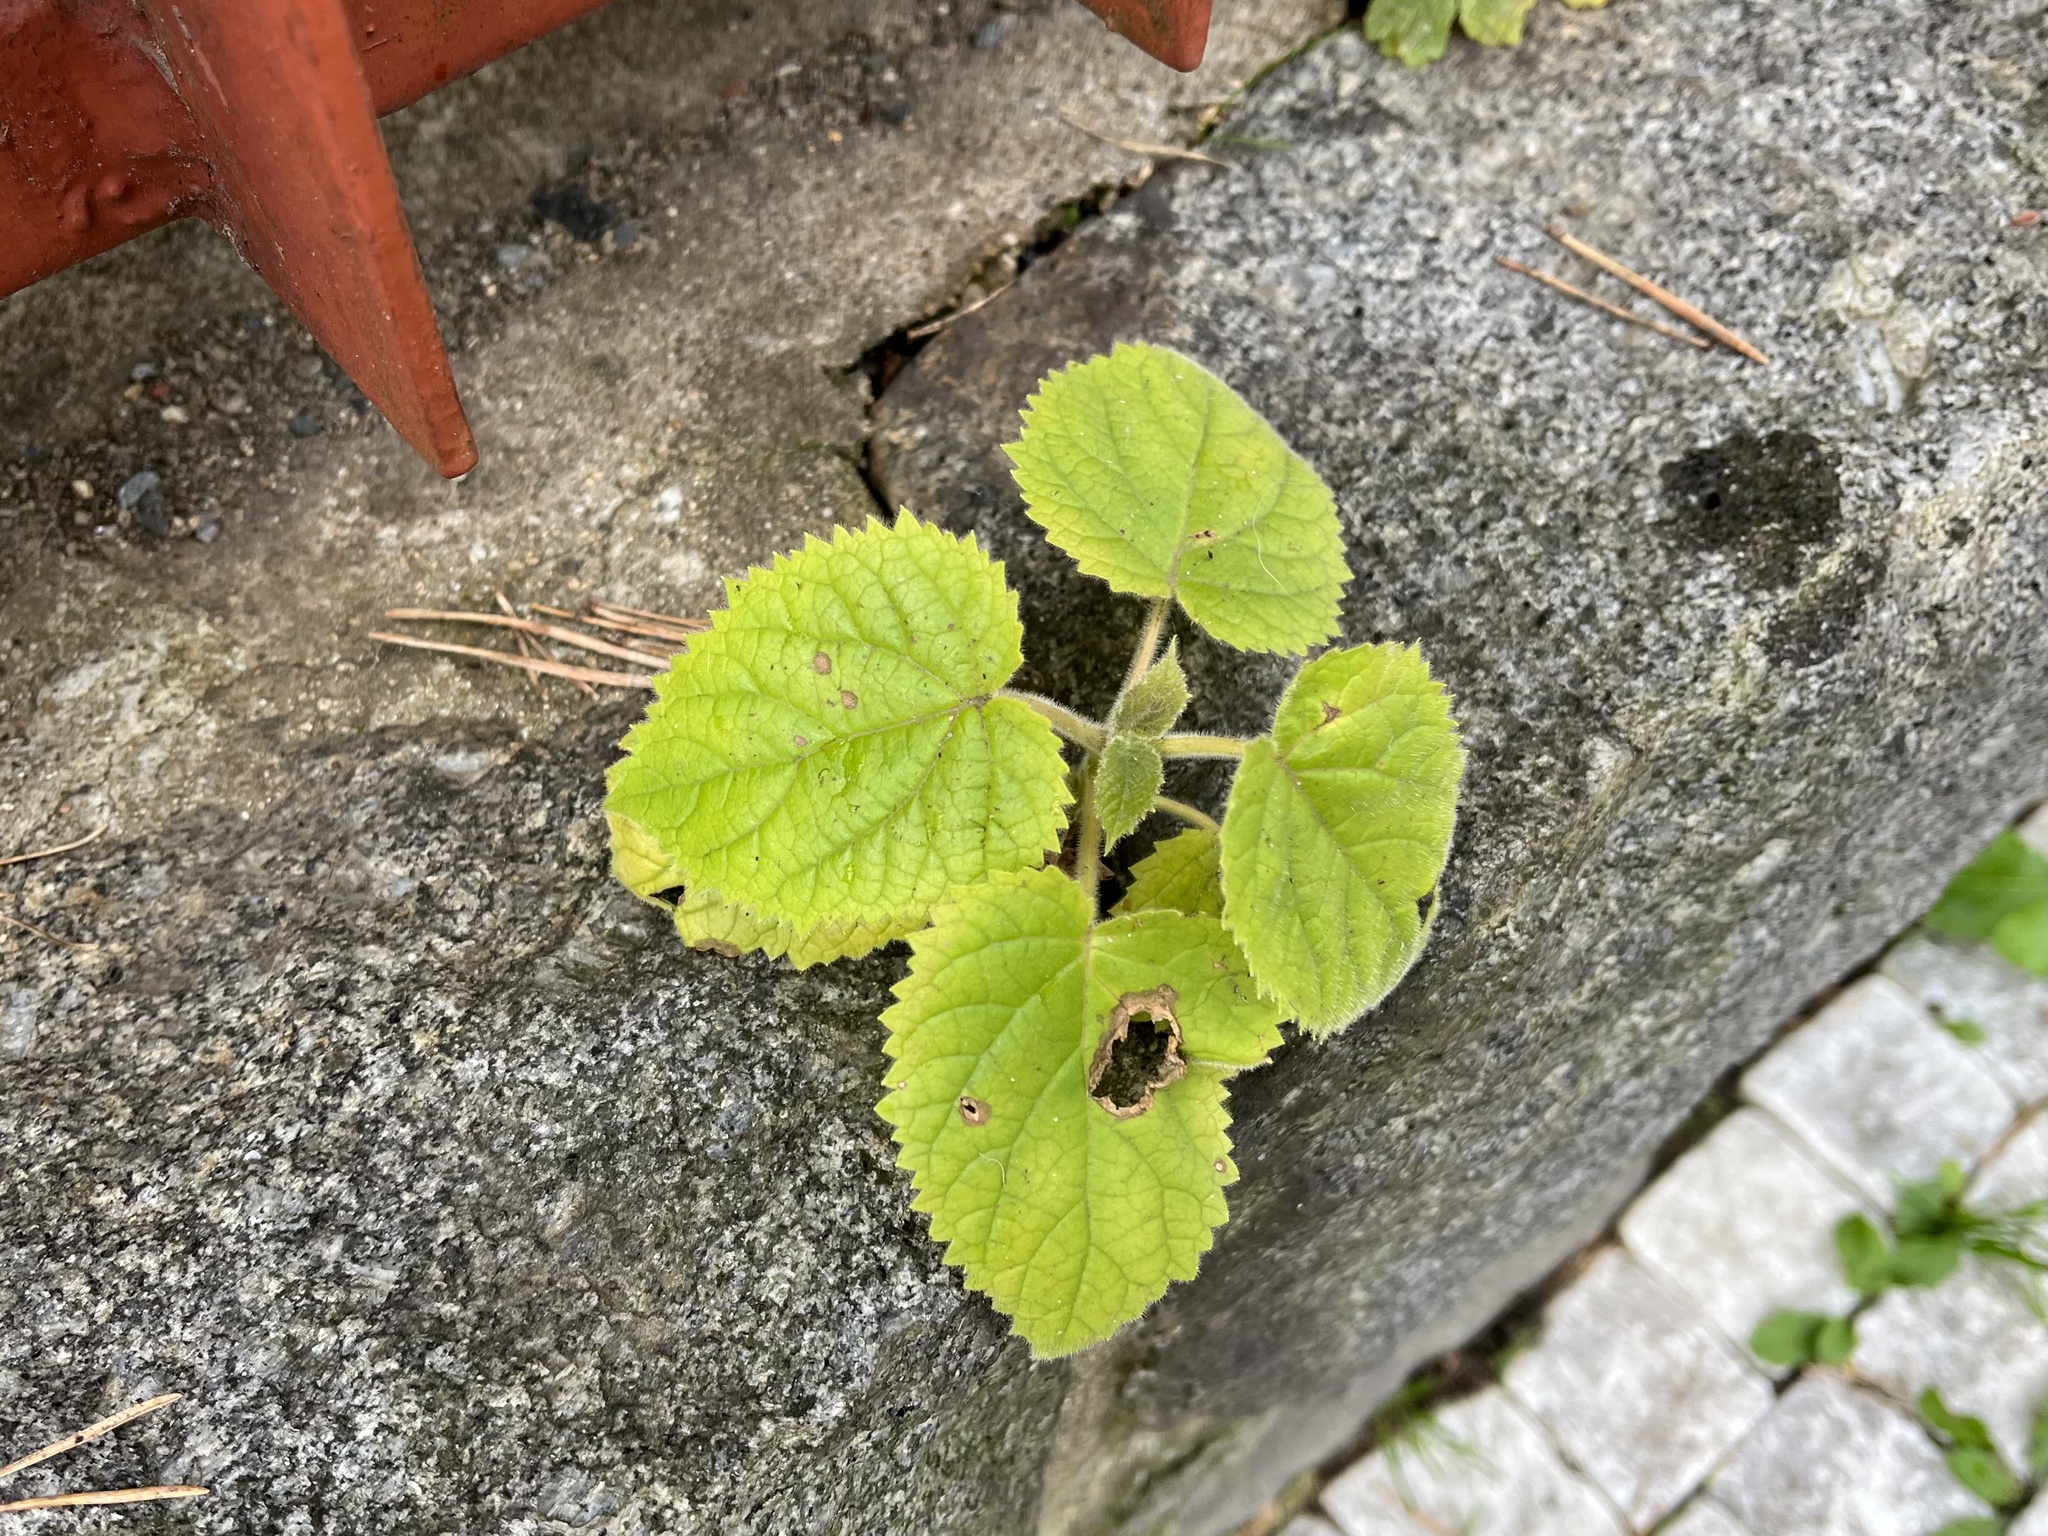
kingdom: Plantae
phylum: Tracheophyta
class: Magnoliopsida
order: Lamiales
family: Paulowniaceae
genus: Paulownia
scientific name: Paulownia tomentosa
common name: Foxglove-tree
